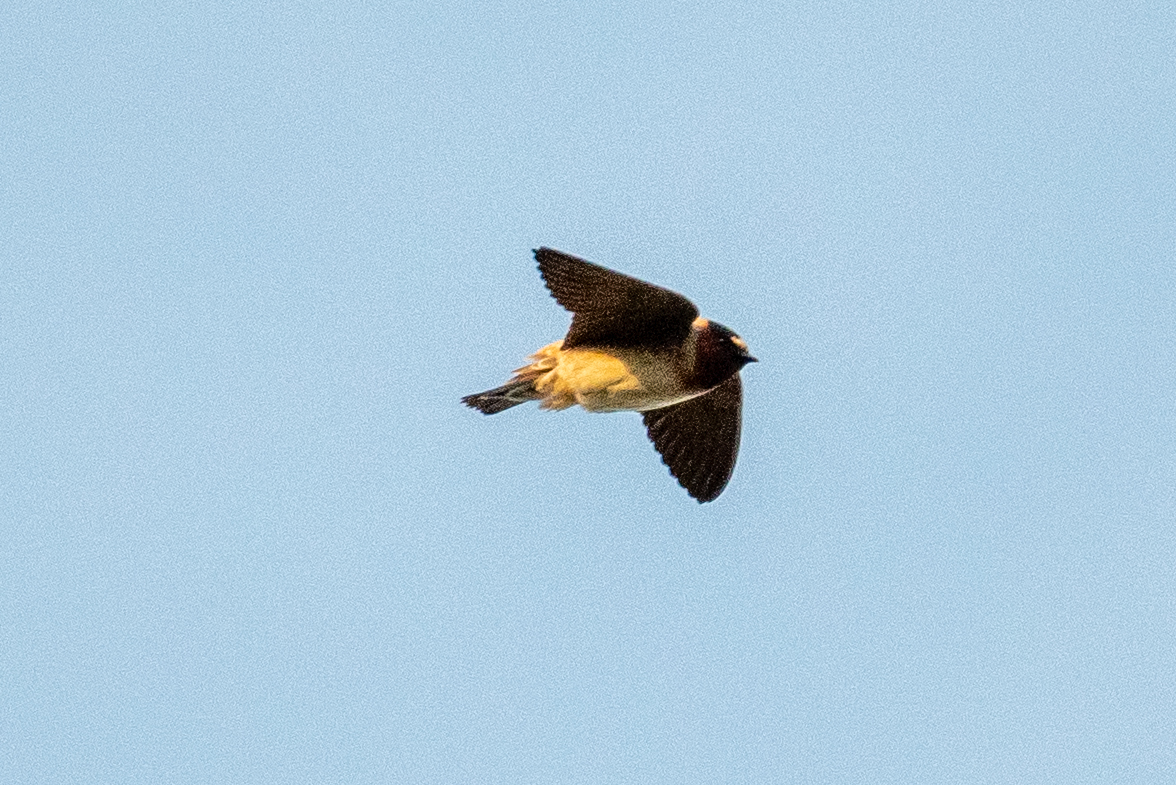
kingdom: Animalia
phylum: Chordata
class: Aves
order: Passeriformes
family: Hirundinidae
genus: Petrochelidon
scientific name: Petrochelidon pyrrhonota
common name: American cliff swallow
